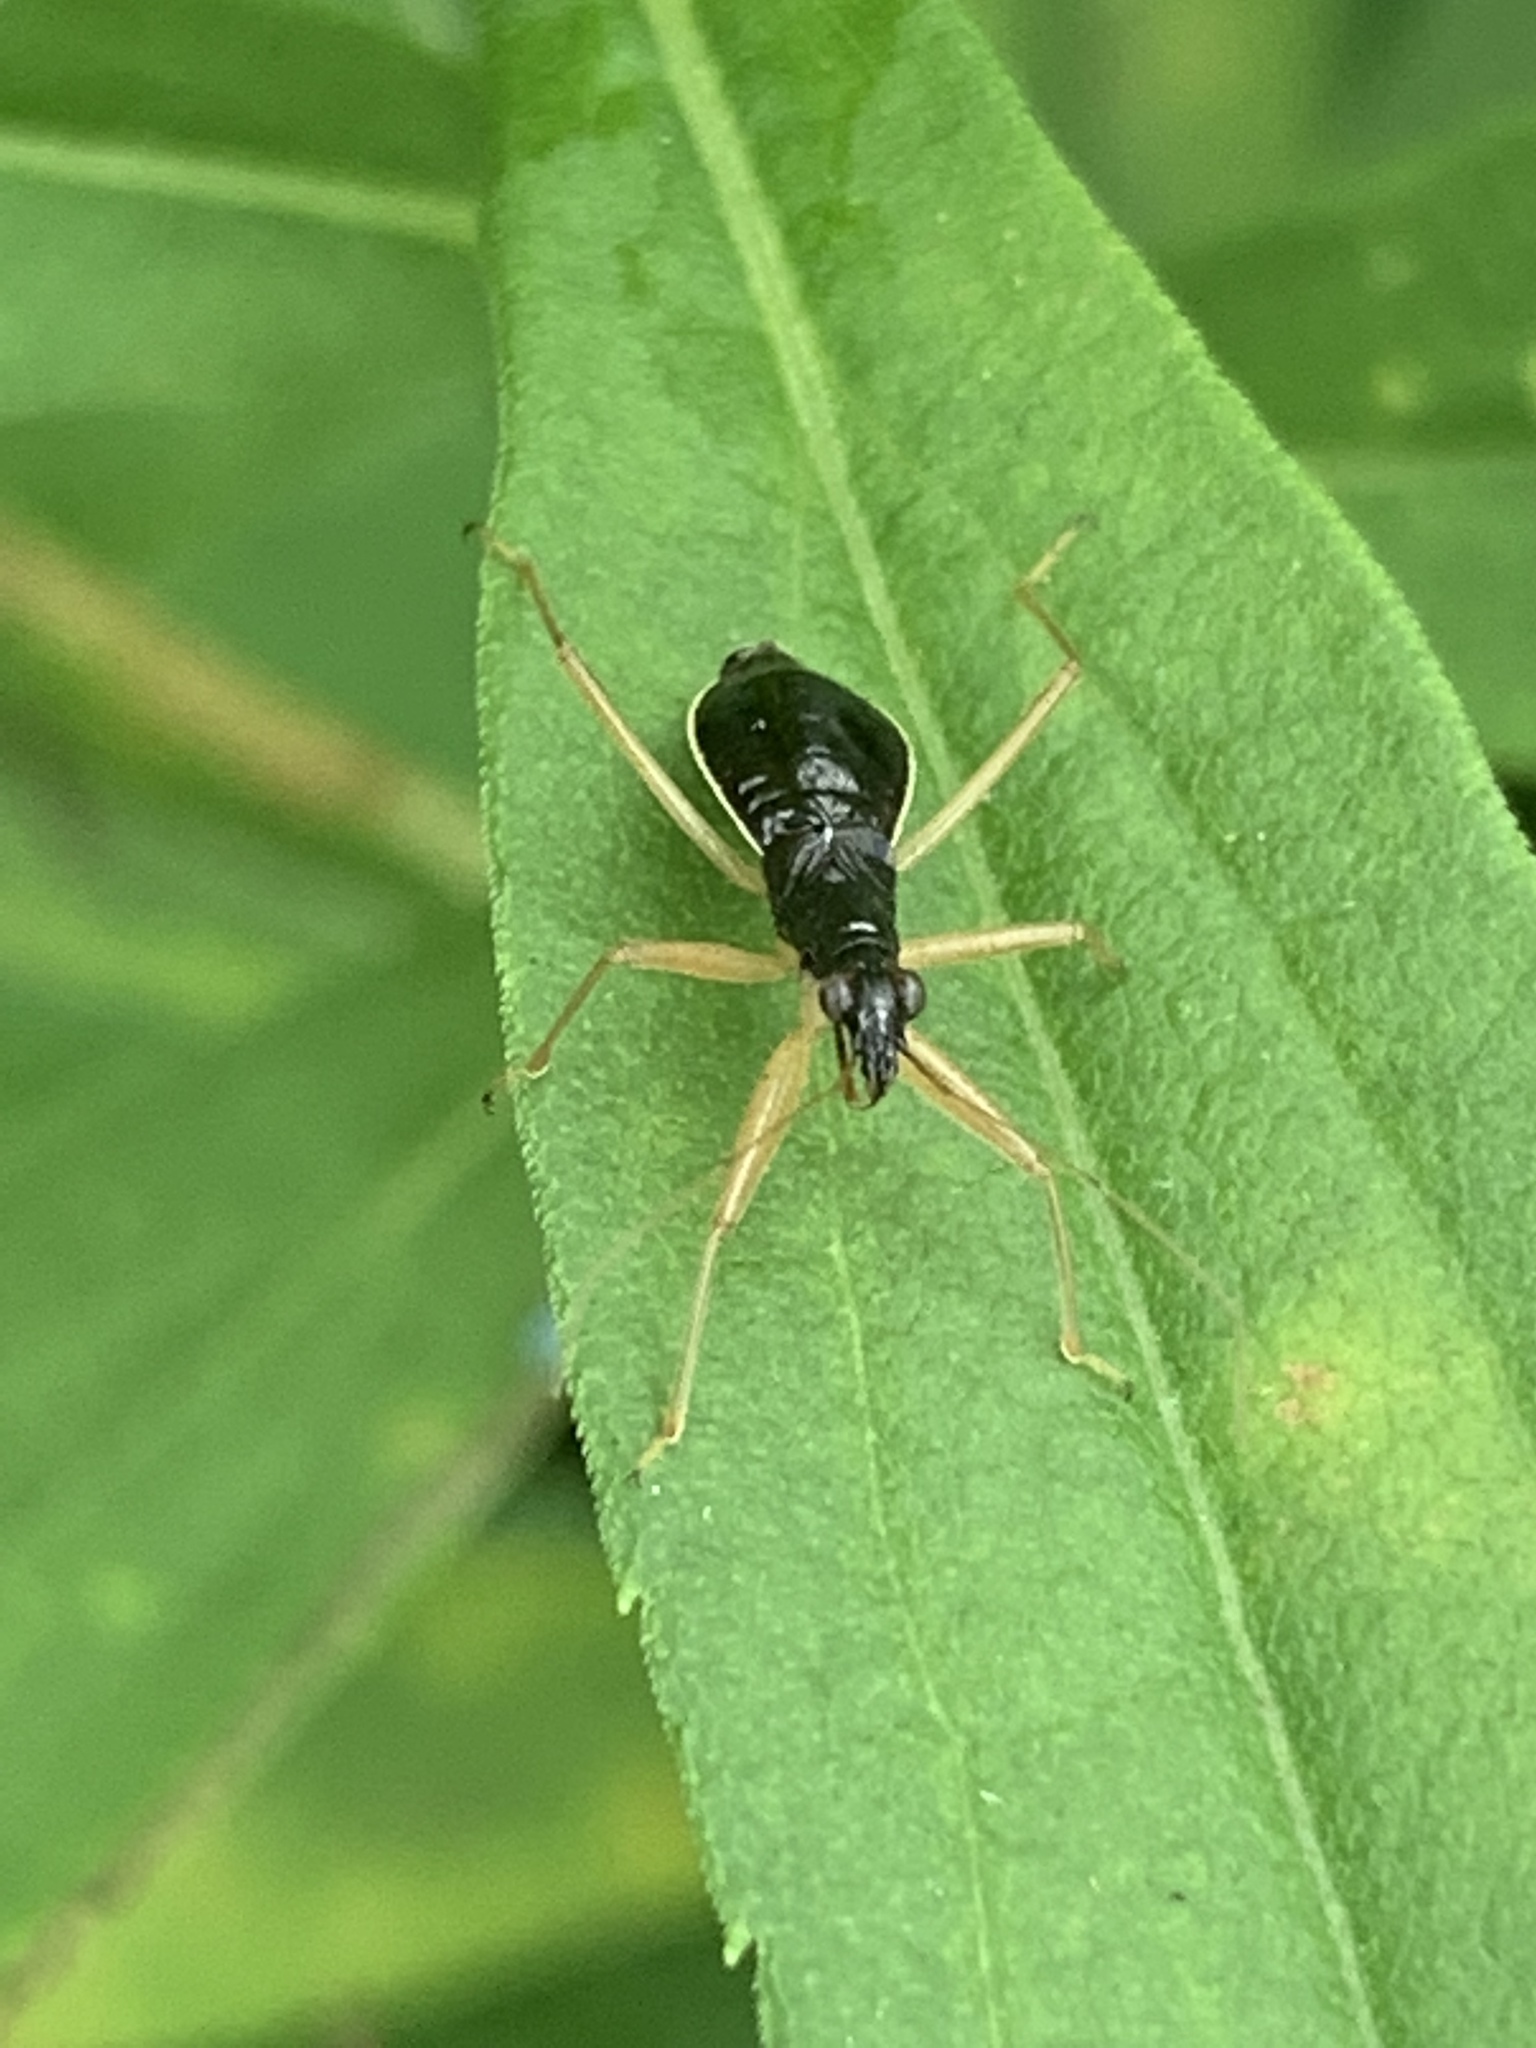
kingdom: Animalia
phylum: Arthropoda
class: Insecta
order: Hemiptera
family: Nabidae
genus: Nabis
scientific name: Nabis
